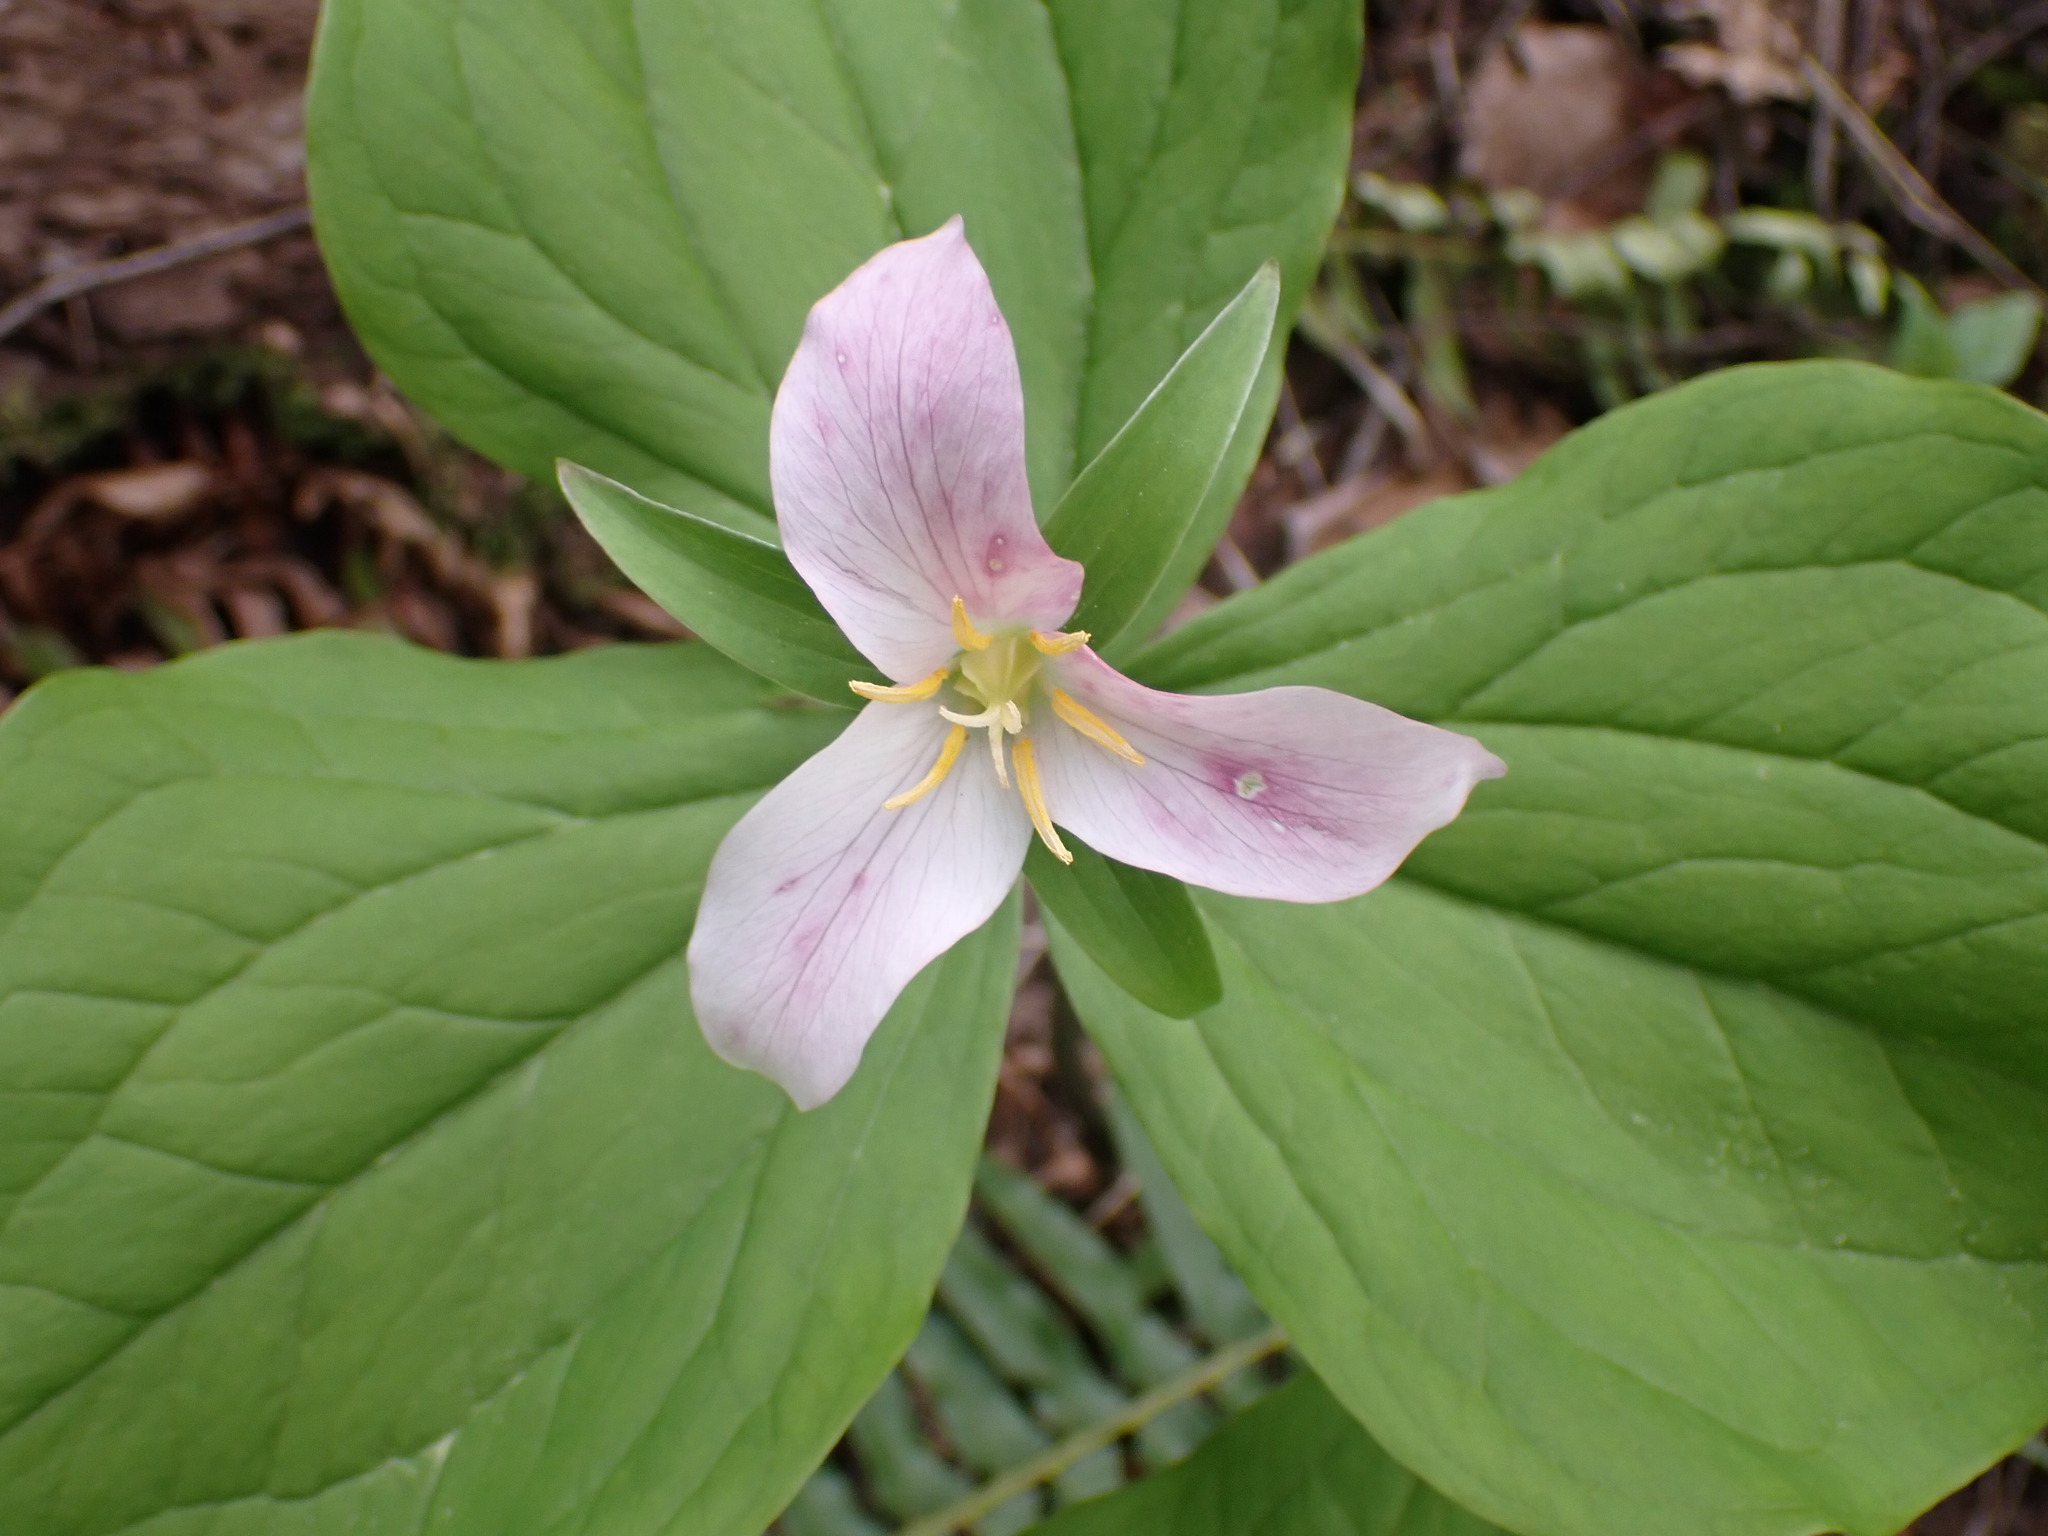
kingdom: Plantae
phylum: Tracheophyta
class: Liliopsida
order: Liliales
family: Melanthiaceae
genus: Trillium
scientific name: Trillium ovatum
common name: Pacific trillium
